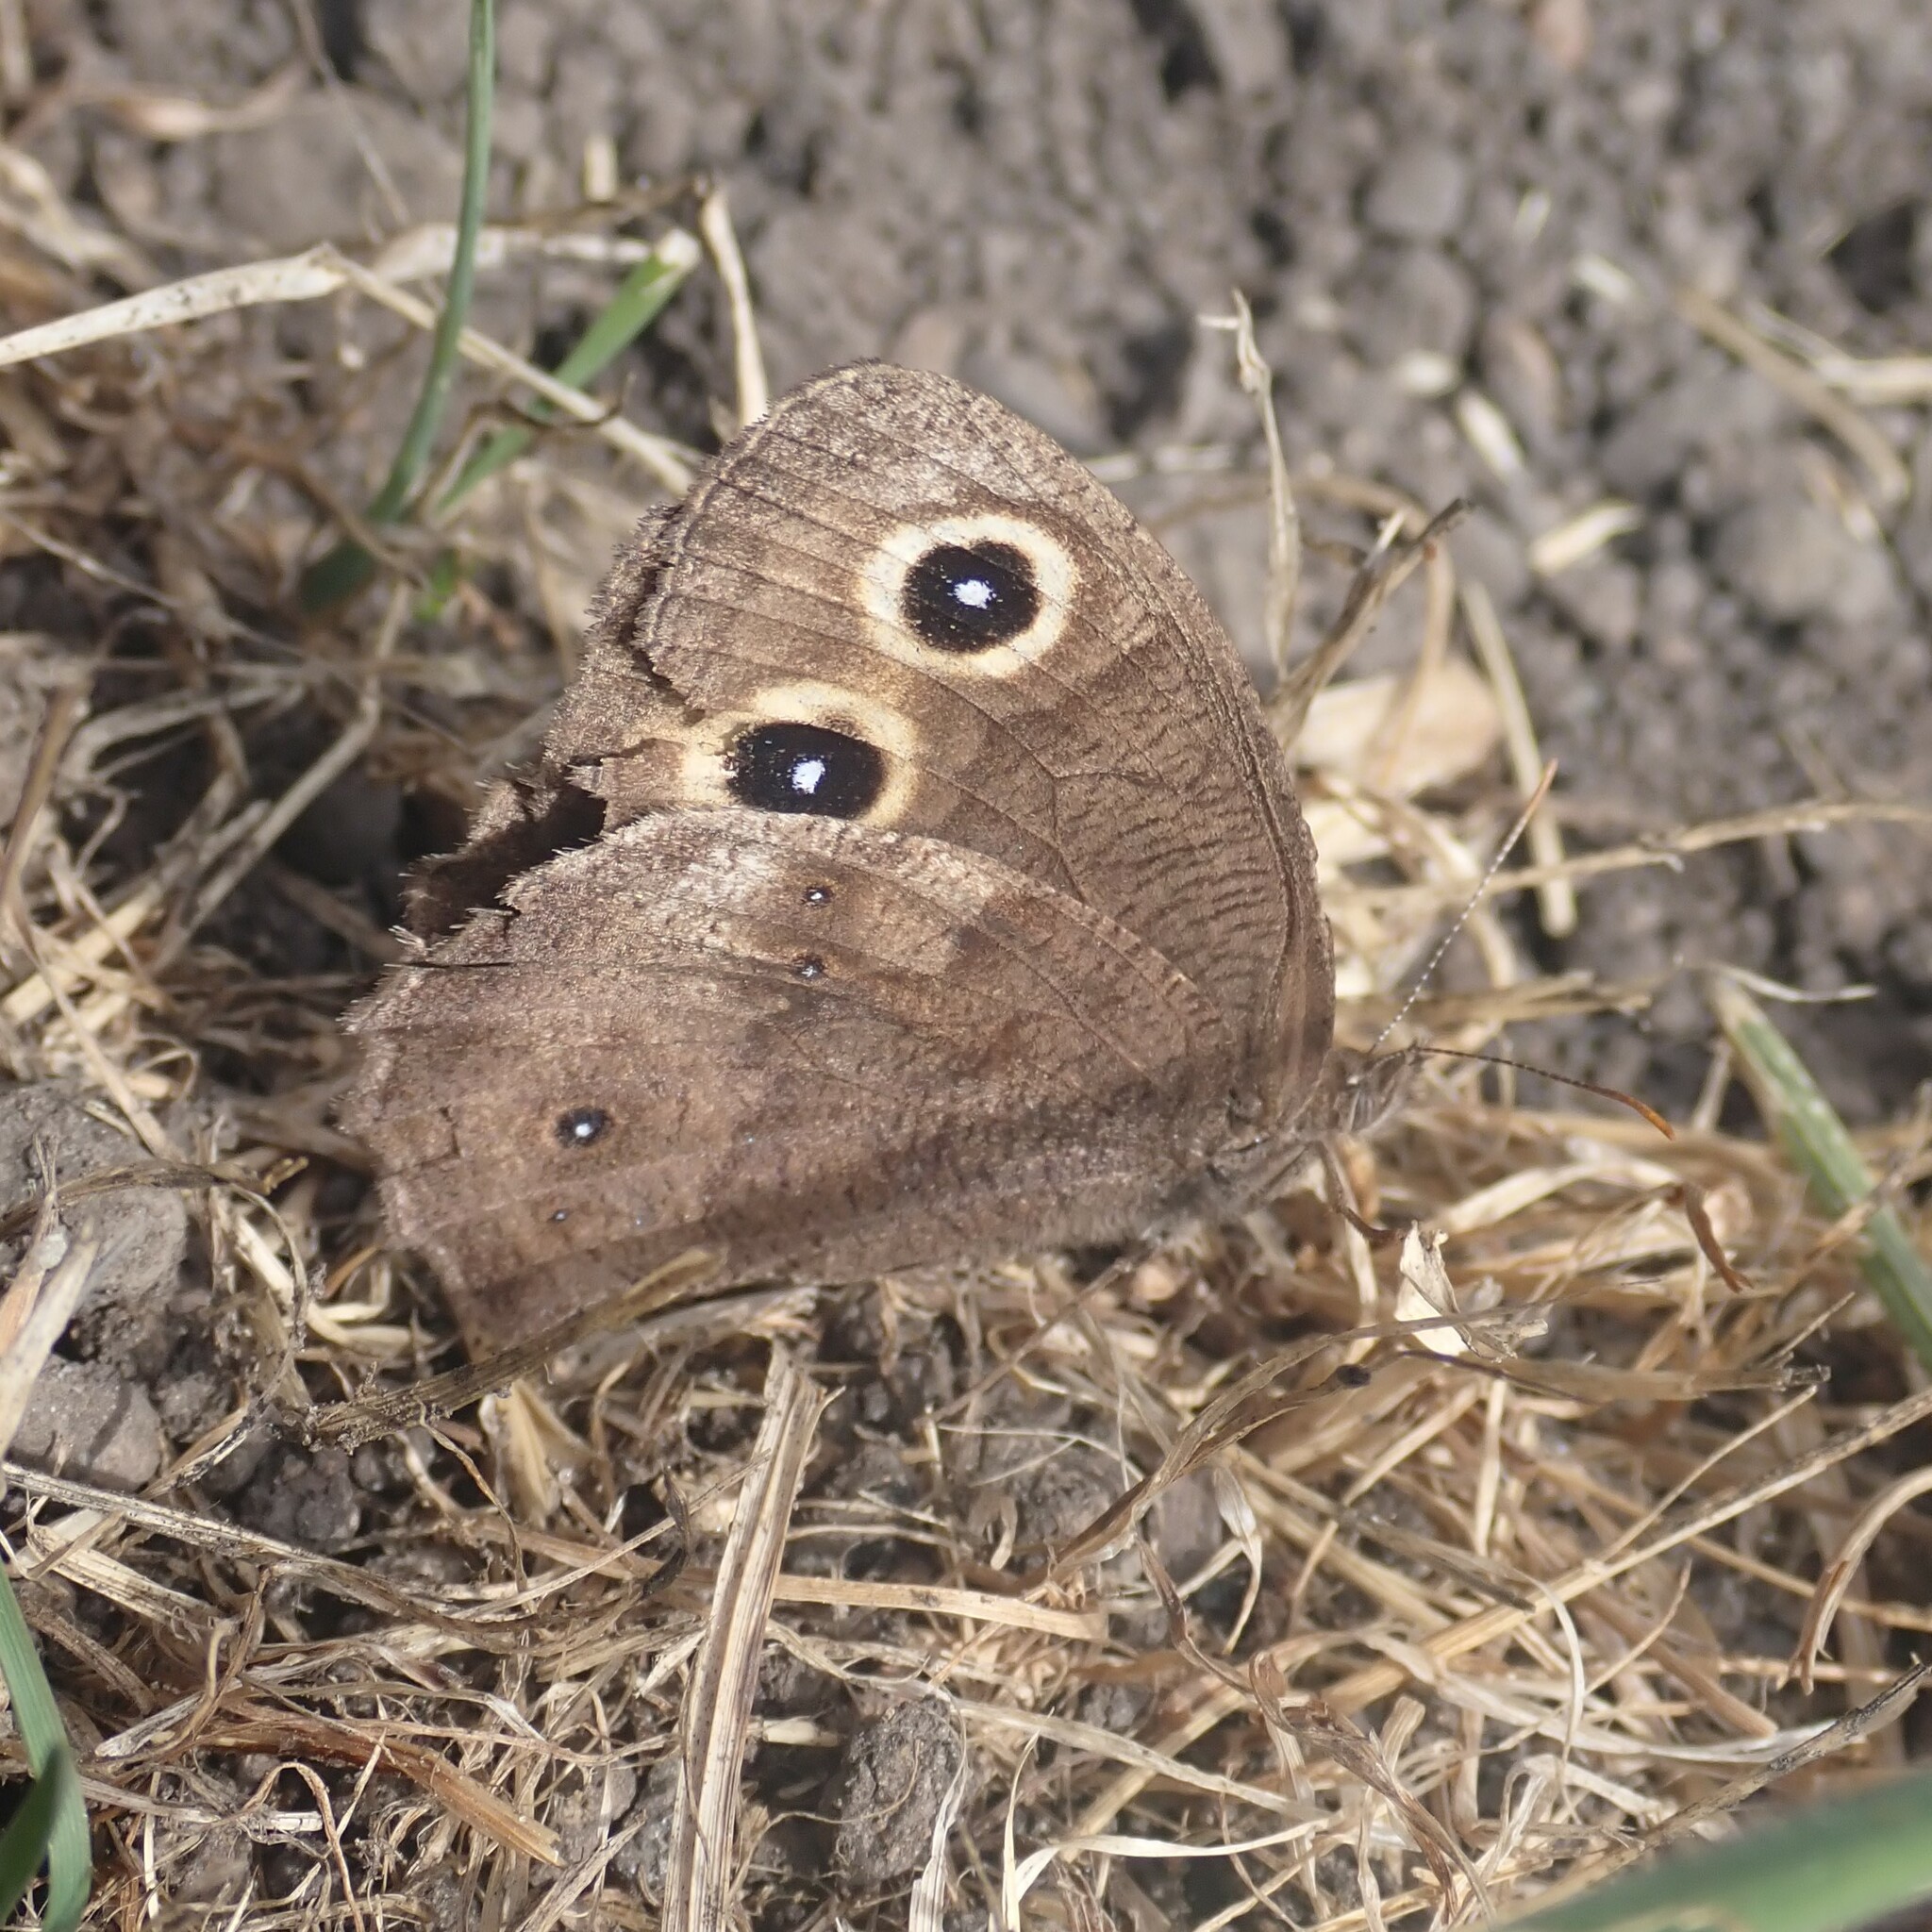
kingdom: Animalia
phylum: Arthropoda
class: Insecta
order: Lepidoptera
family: Nymphalidae
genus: Cercyonis
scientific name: Cercyonis pegala
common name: Common wood-nymph
